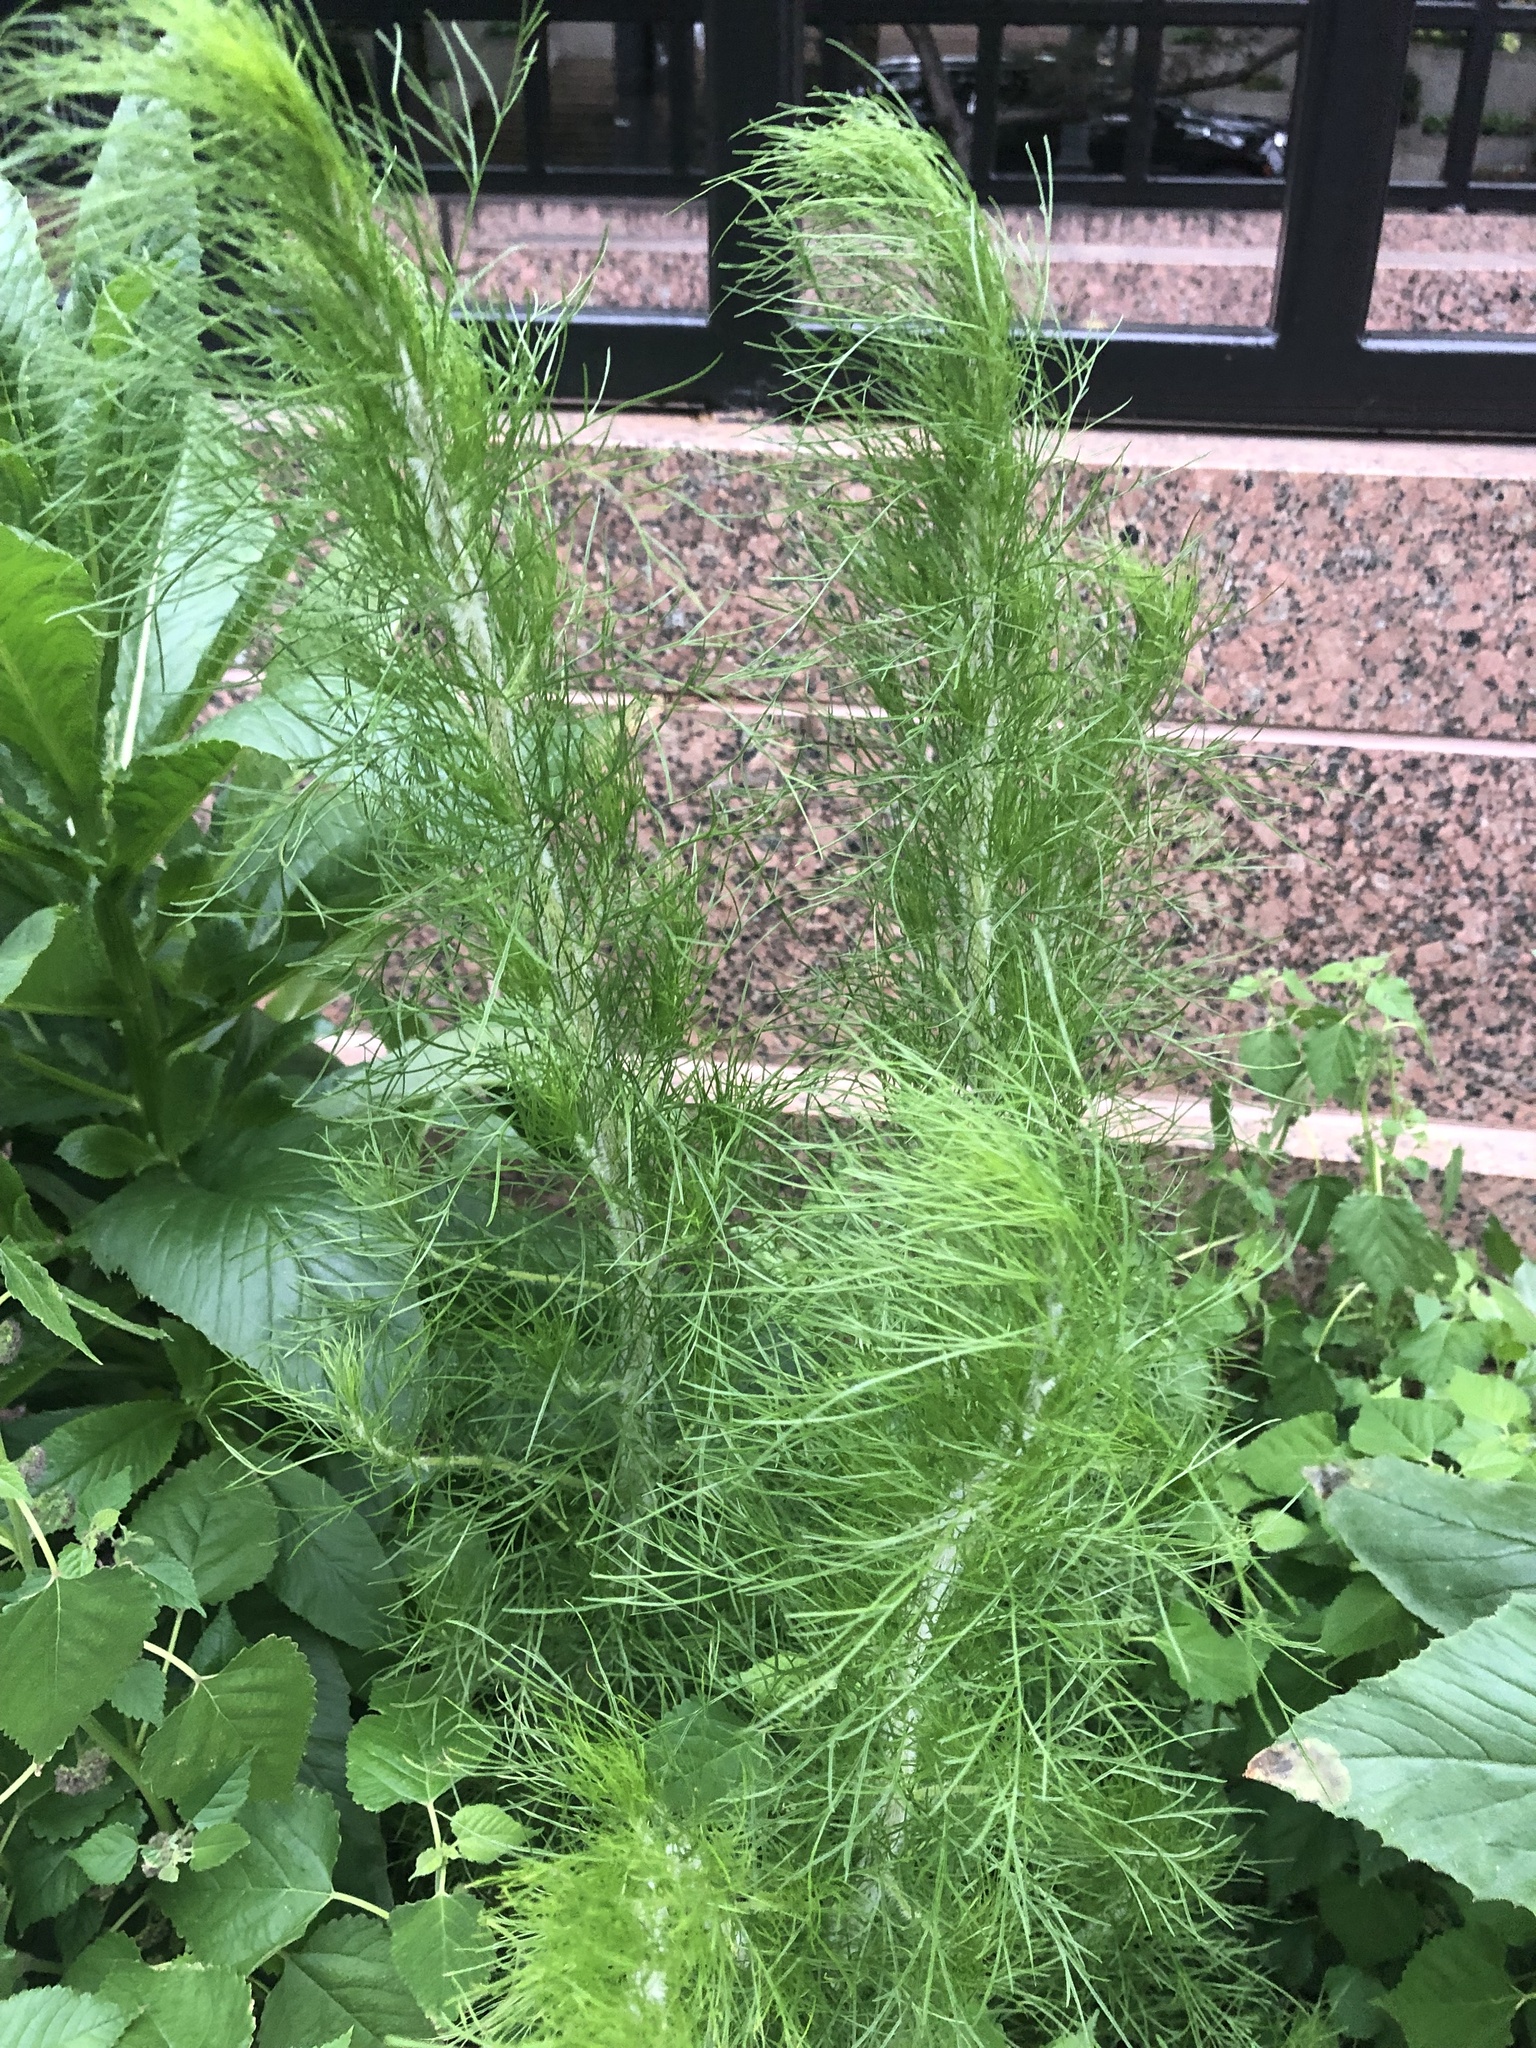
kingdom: Plantae
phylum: Tracheophyta
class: Magnoliopsida
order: Asterales
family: Asteraceae
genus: Eupatorium
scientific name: Eupatorium capillifolium
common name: Dog-fennel
